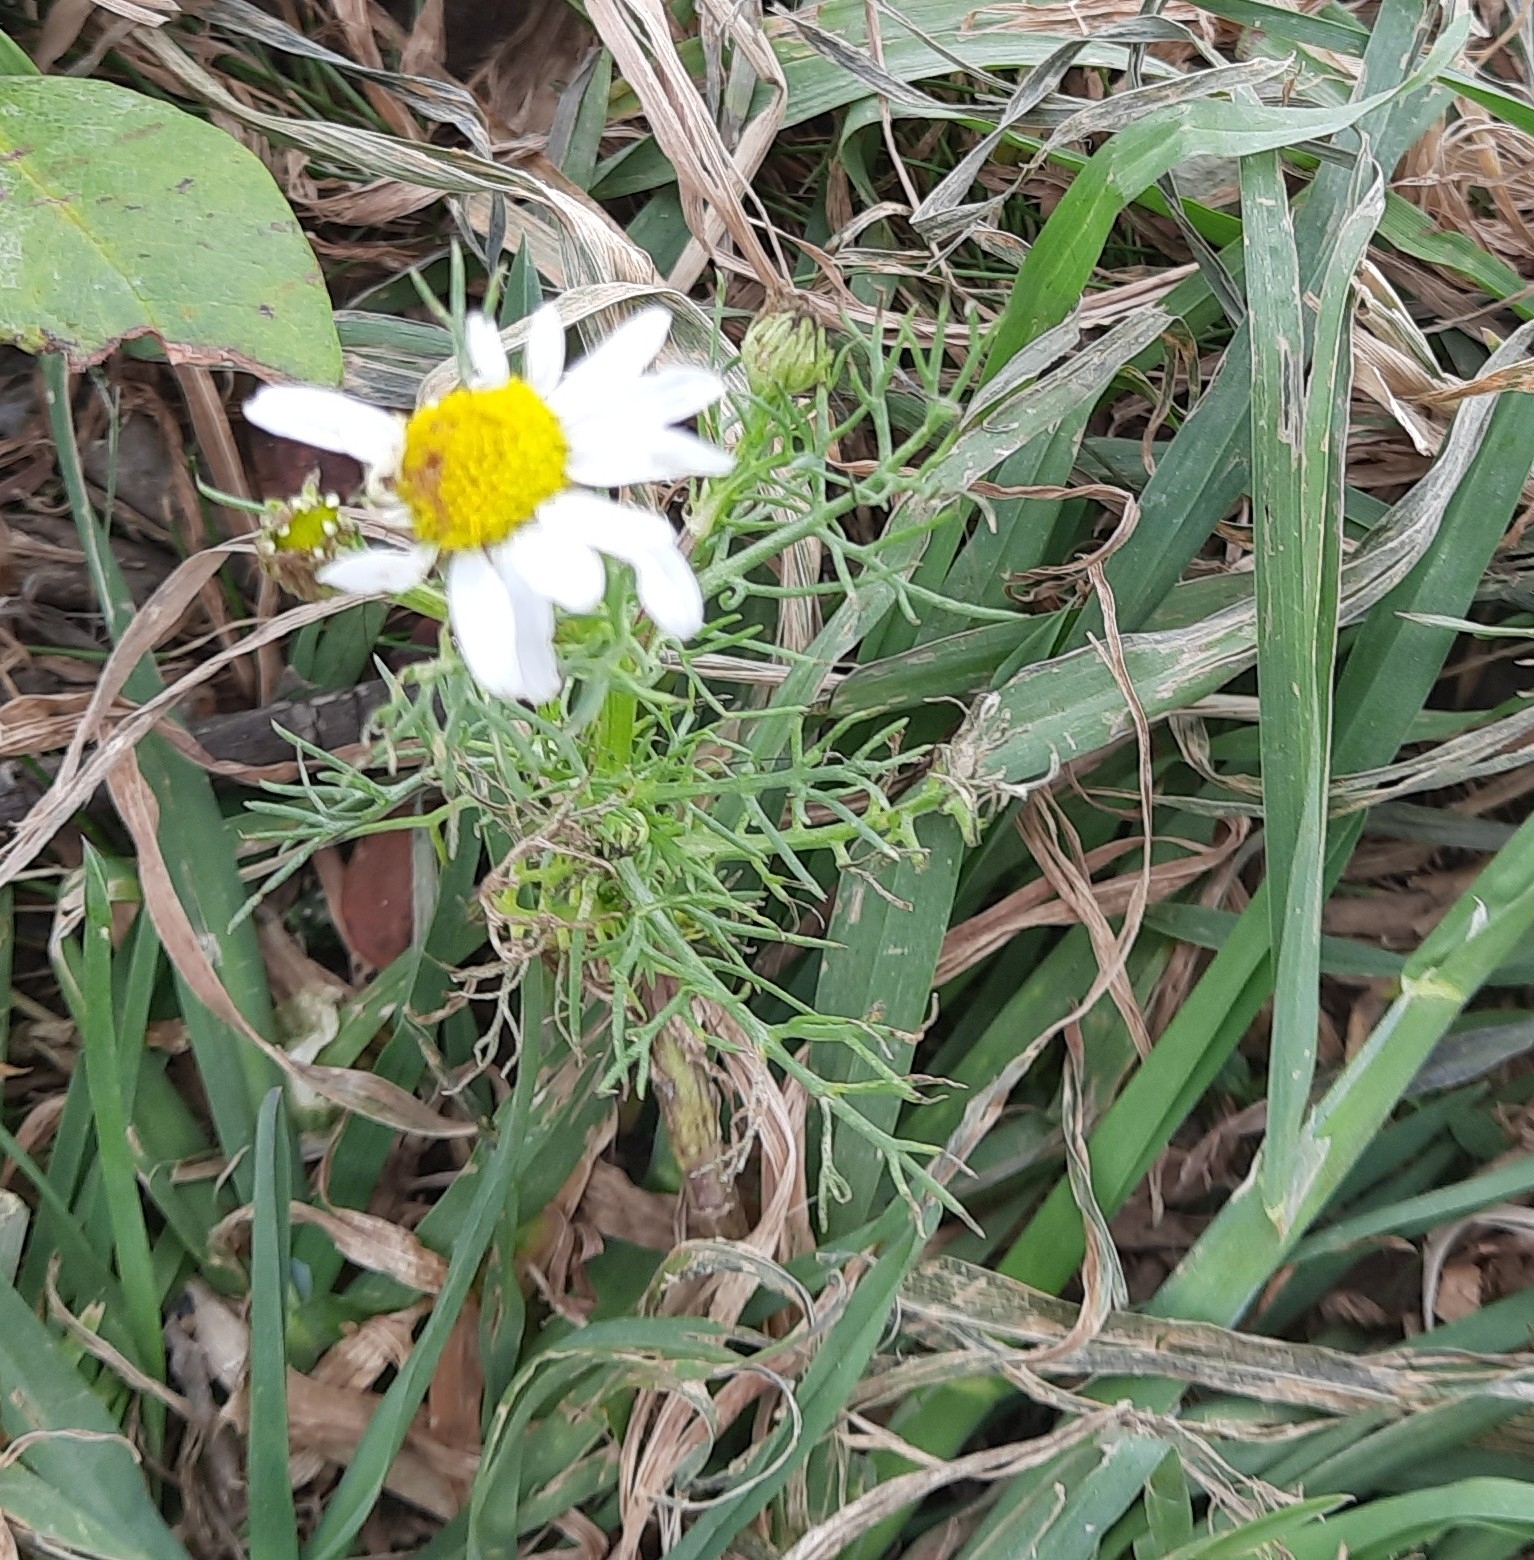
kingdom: Plantae
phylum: Tracheophyta
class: Magnoliopsida
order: Asterales
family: Asteraceae
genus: Tripleurospermum
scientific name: Tripleurospermum inodorum
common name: Scentless mayweed
